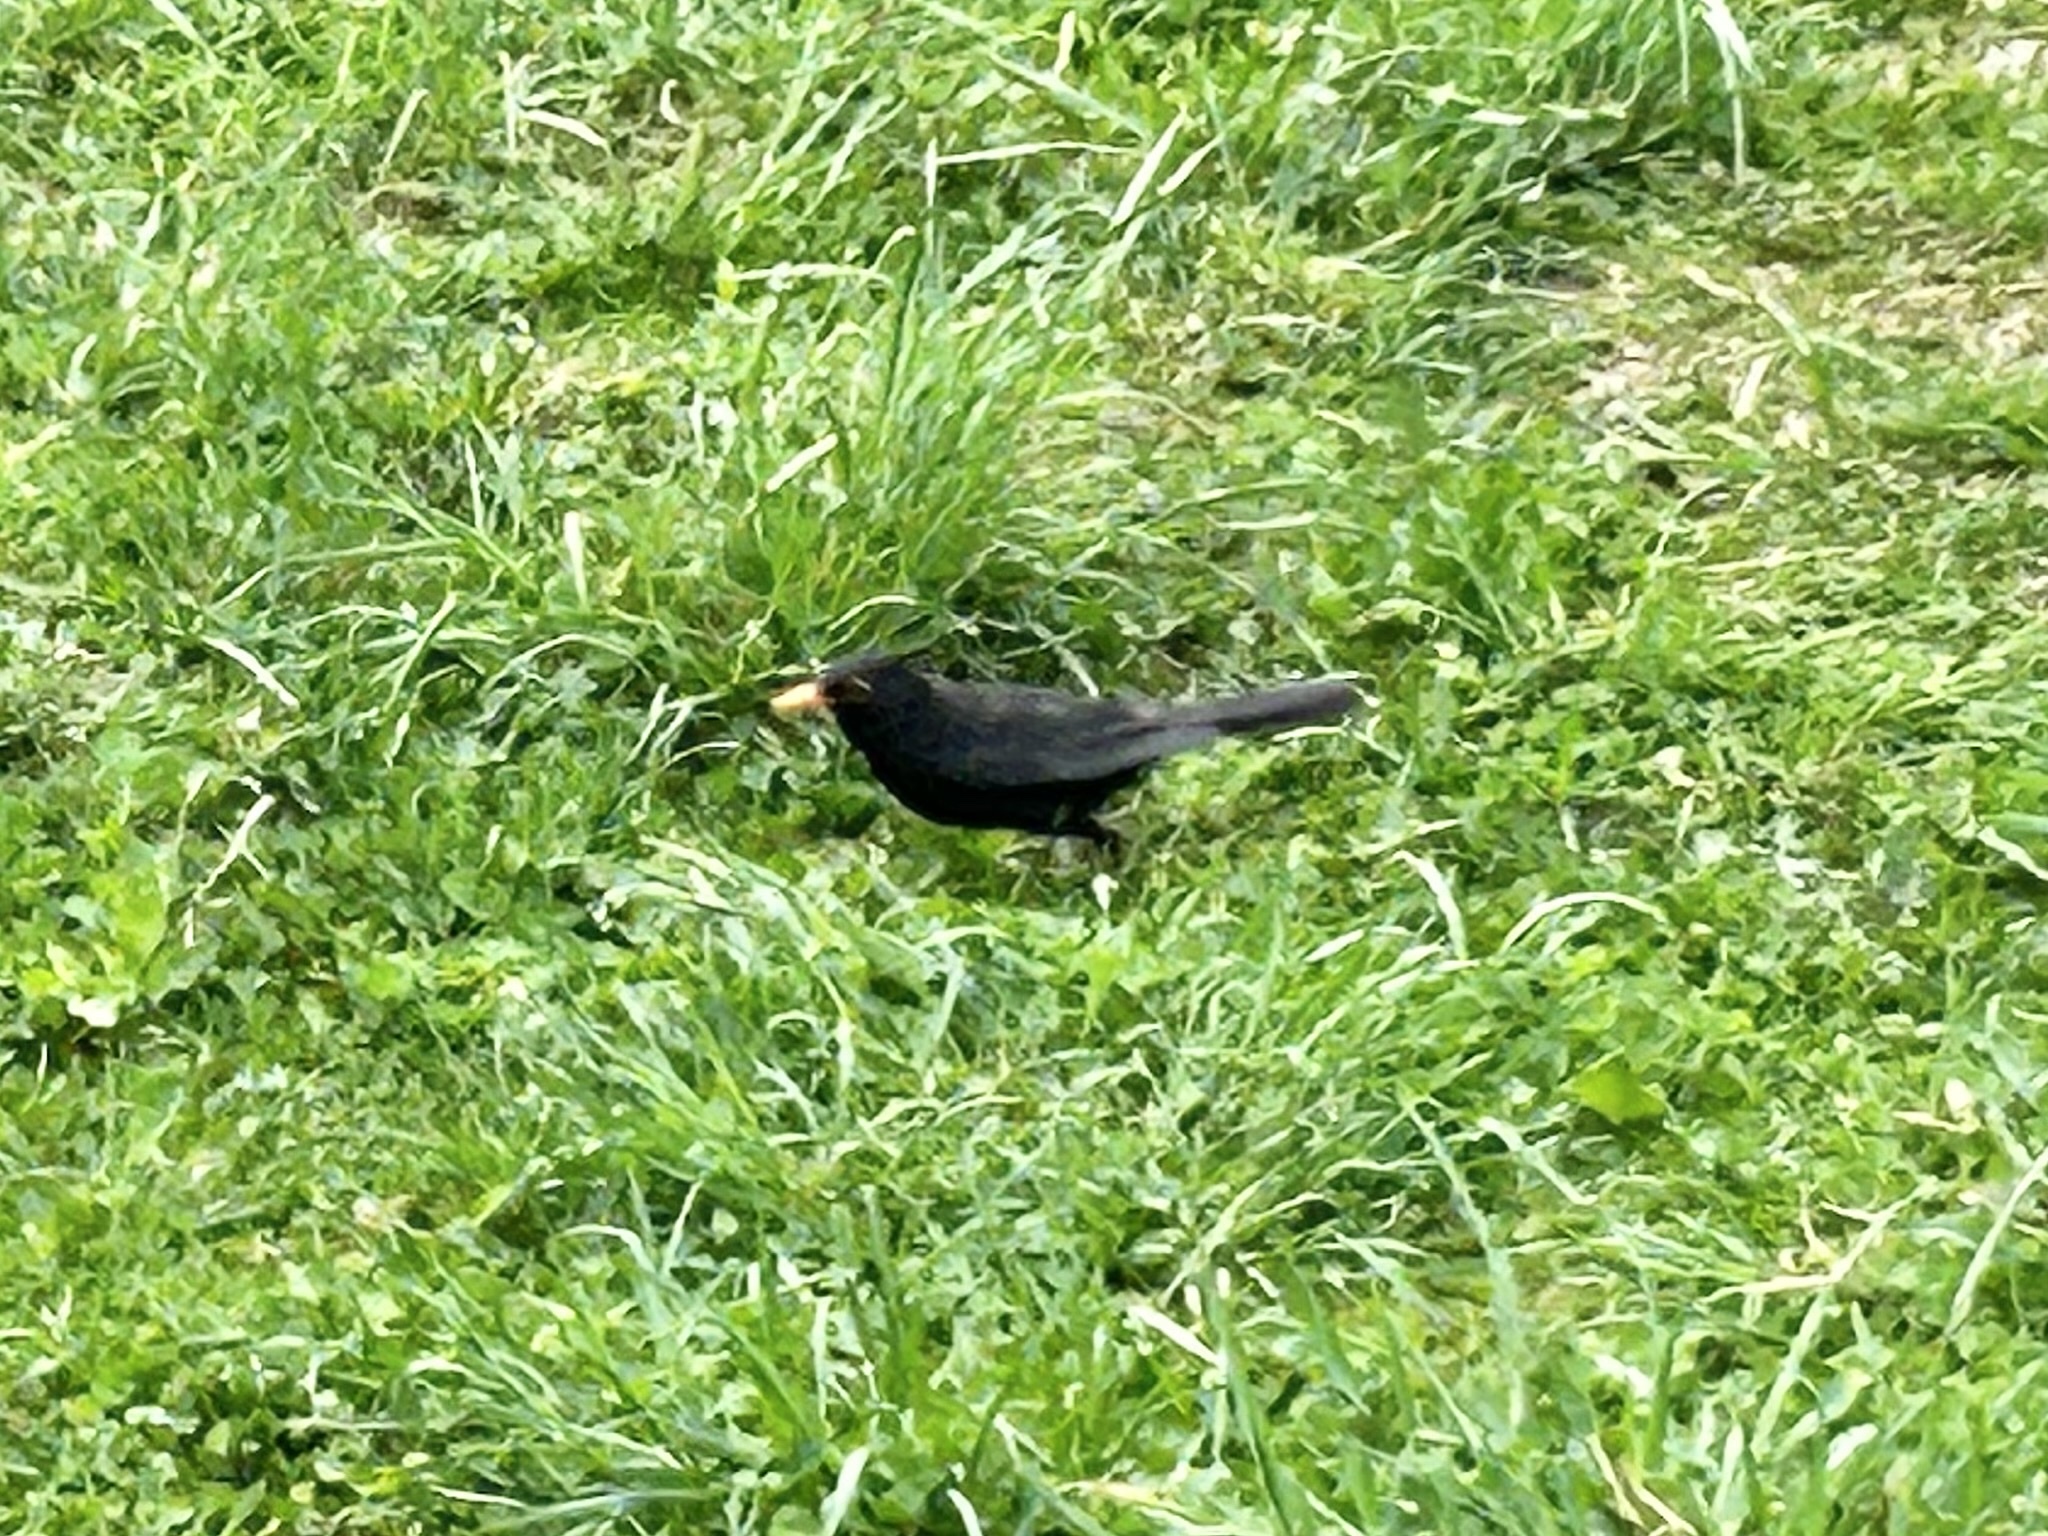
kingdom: Animalia
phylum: Chordata
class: Aves
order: Passeriformes
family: Turdidae
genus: Turdus
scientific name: Turdus merula
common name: Common blackbird
